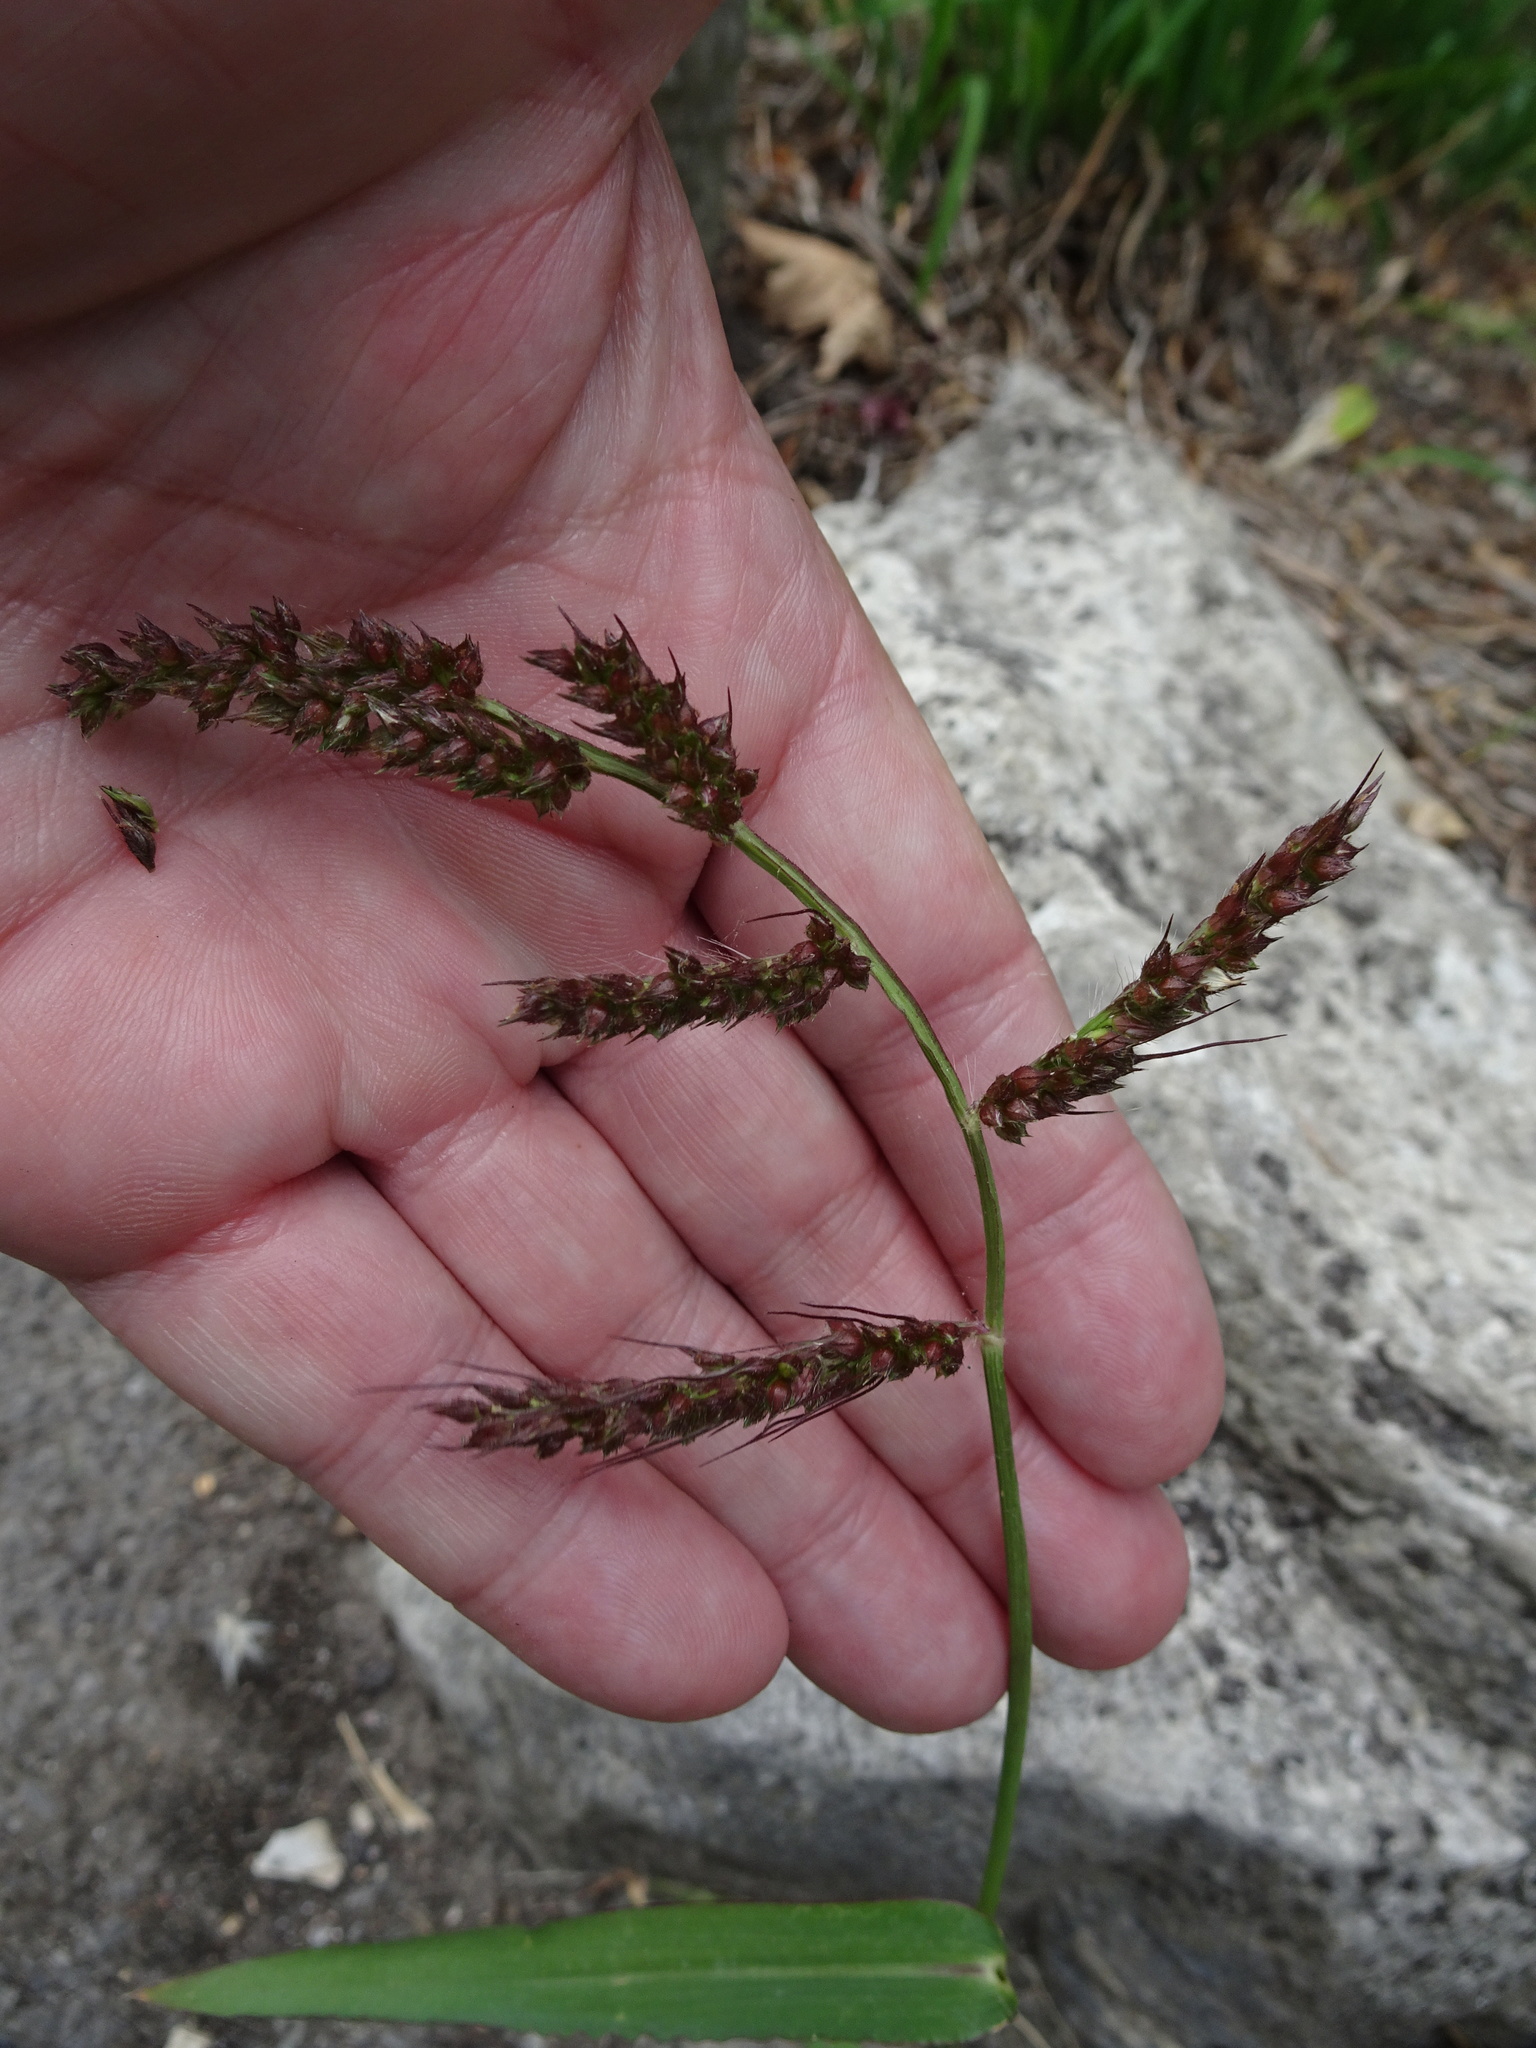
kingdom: Plantae
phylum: Tracheophyta
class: Liliopsida
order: Poales
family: Poaceae
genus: Echinochloa
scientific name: Echinochloa crus-galli
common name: Cockspur
